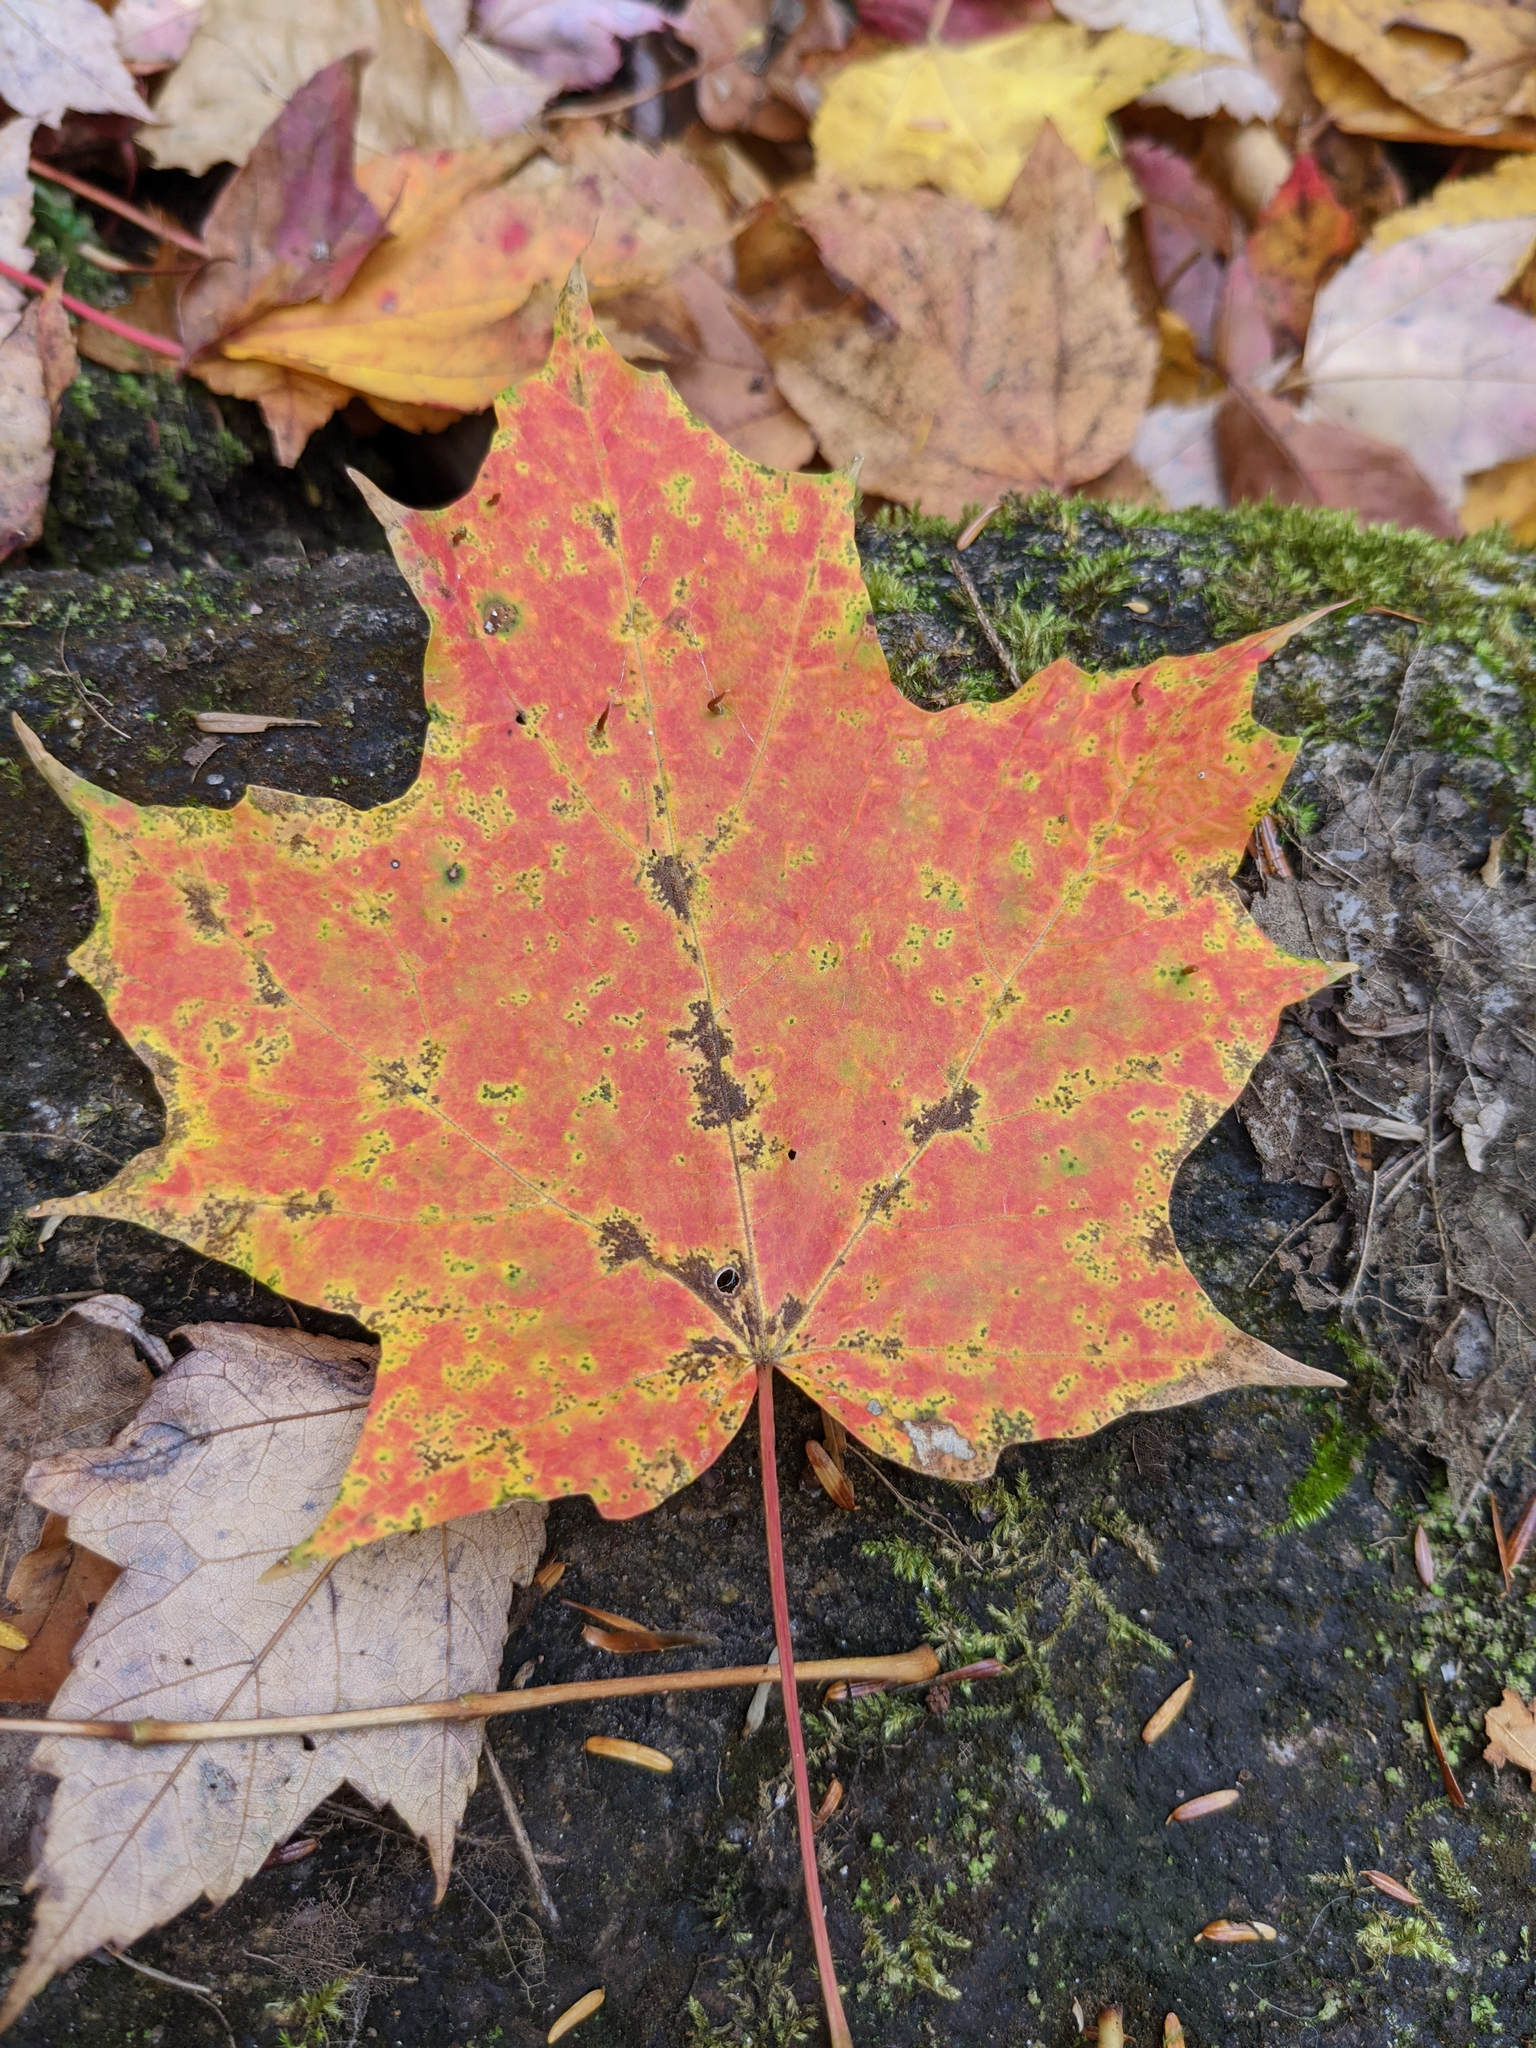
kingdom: Plantae
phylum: Tracheophyta
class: Magnoliopsida
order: Sapindales
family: Sapindaceae
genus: Acer
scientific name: Acer saccharum
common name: Sugar maple
